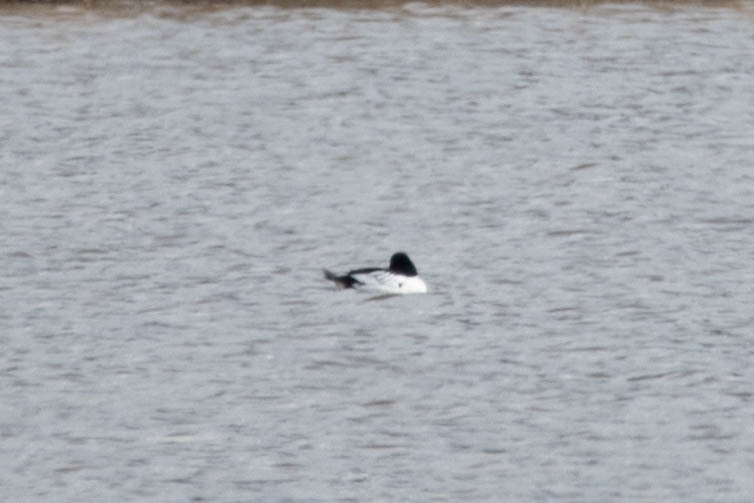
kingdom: Animalia
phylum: Chordata
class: Aves
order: Anseriformes
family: Anatidae
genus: Bucephala
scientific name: Bucephala clangula
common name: Common goldeneye
